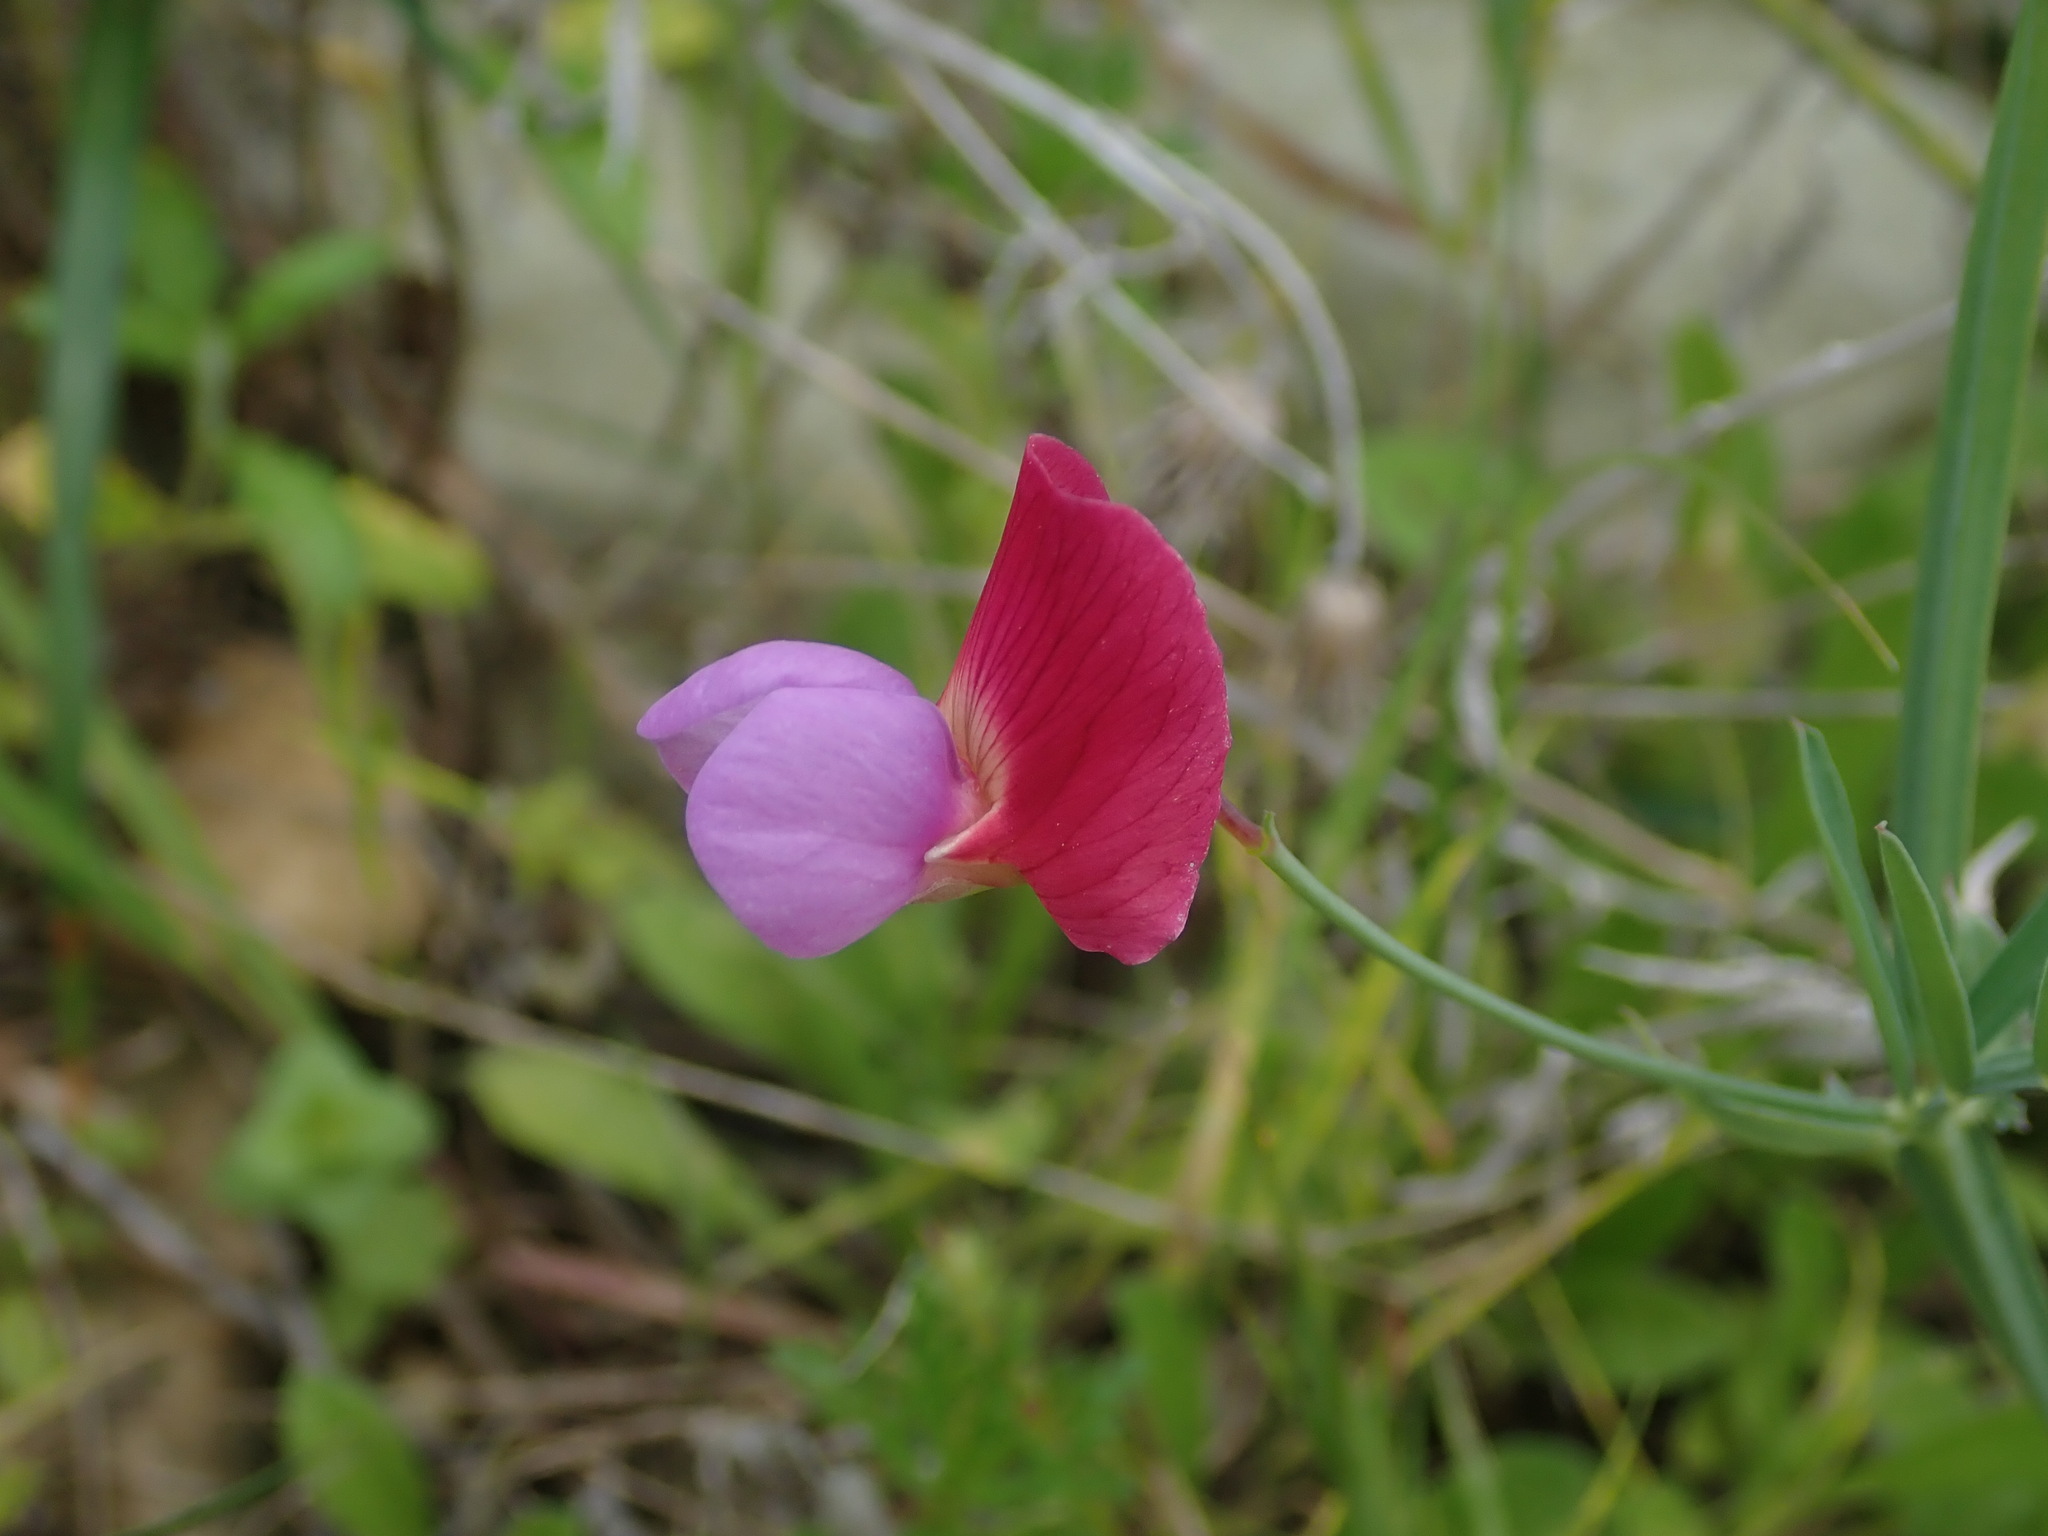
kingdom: Plantae
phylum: Tracheophyta
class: Magnoliopsida
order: Fabales
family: Fabaceae
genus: Lathyrus
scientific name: Lathyrus clymenum
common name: Spanish vetchling
